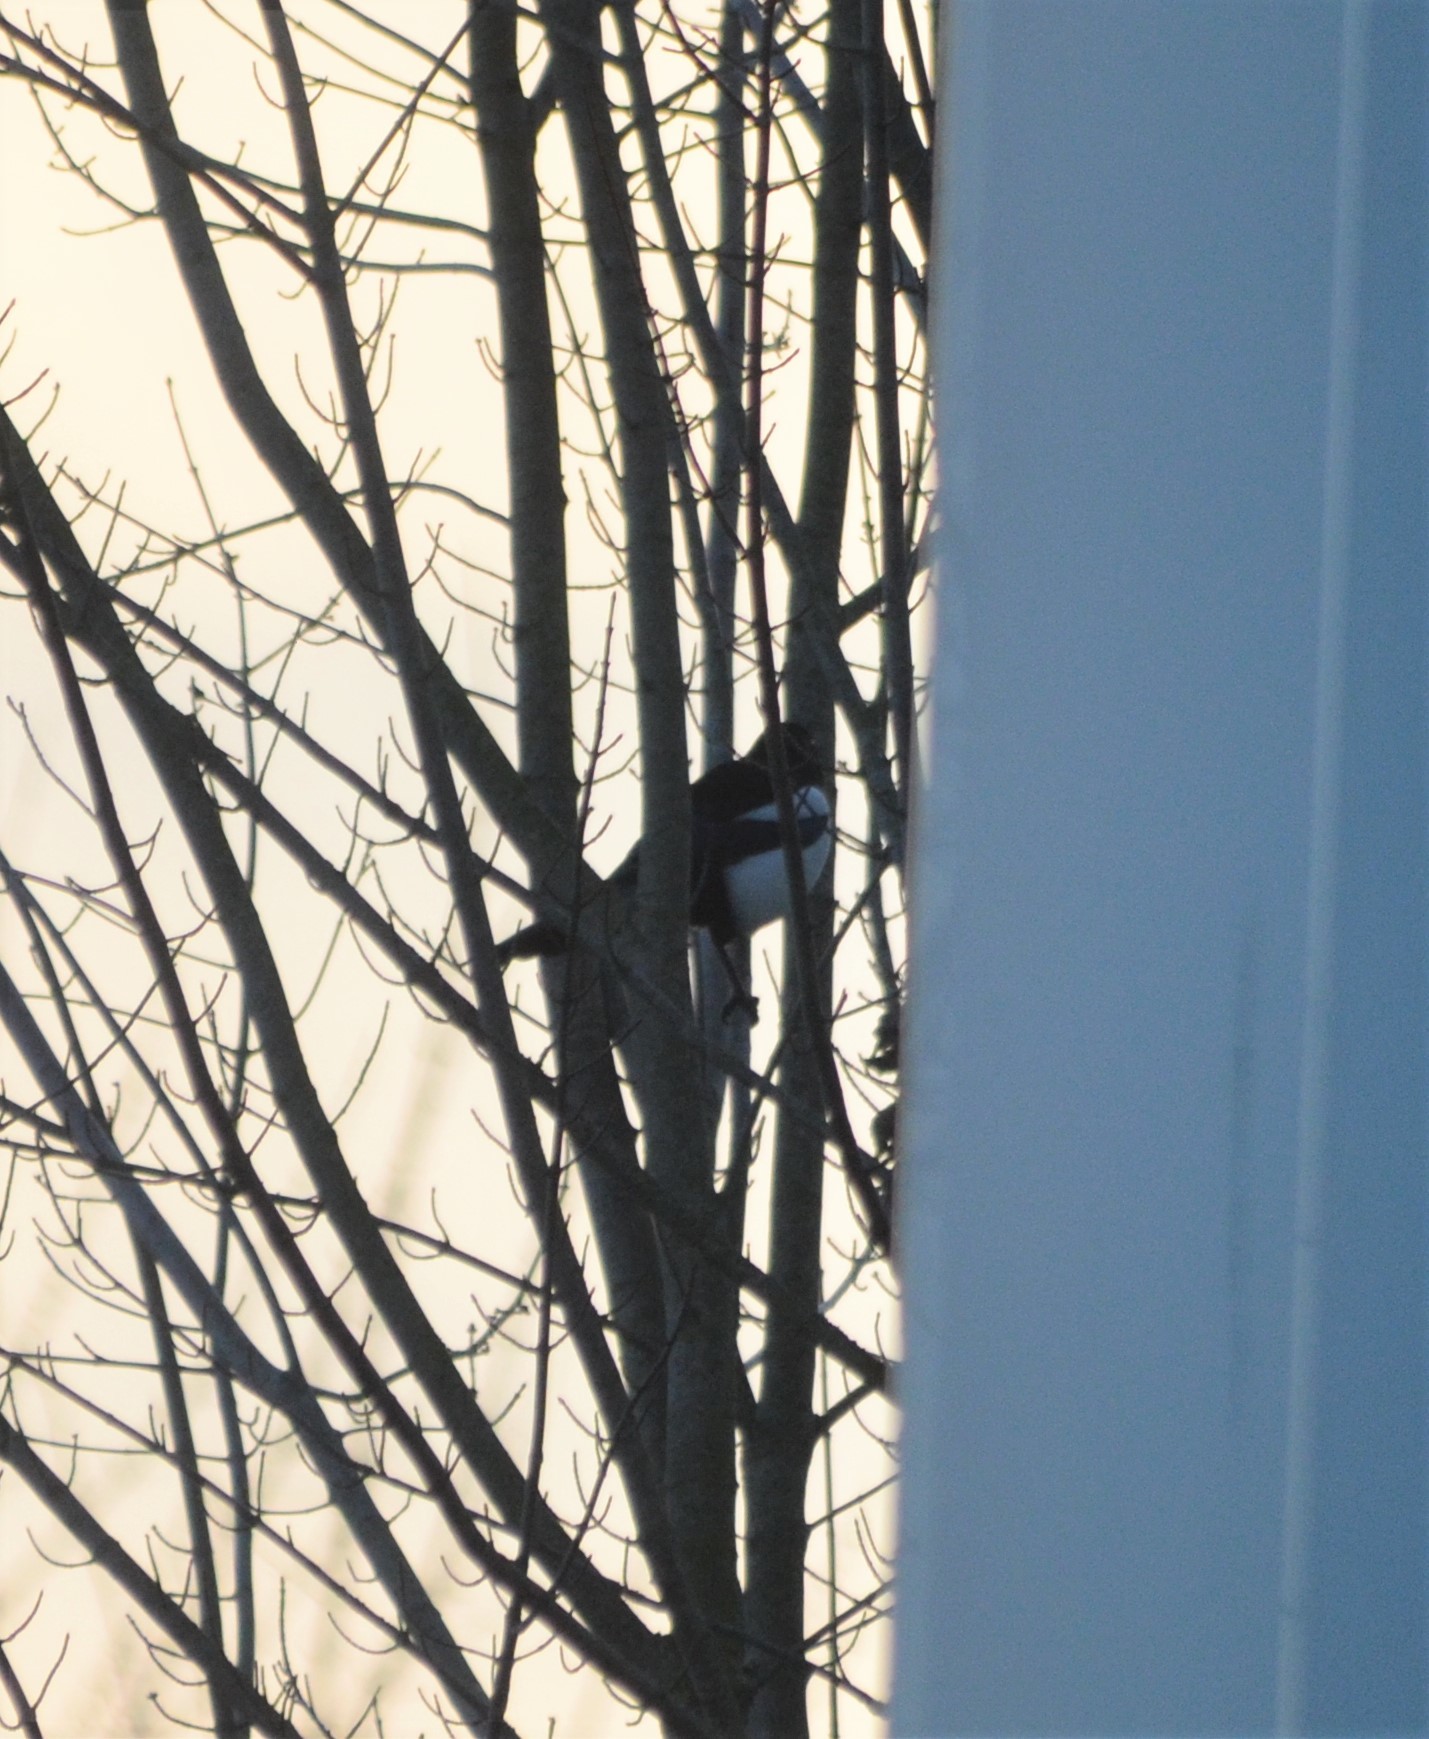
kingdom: Animalia
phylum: Chordata
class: Aves
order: Passeriformes
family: Corvidae
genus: Pica
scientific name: Pica pica
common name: Eurasian magpie
